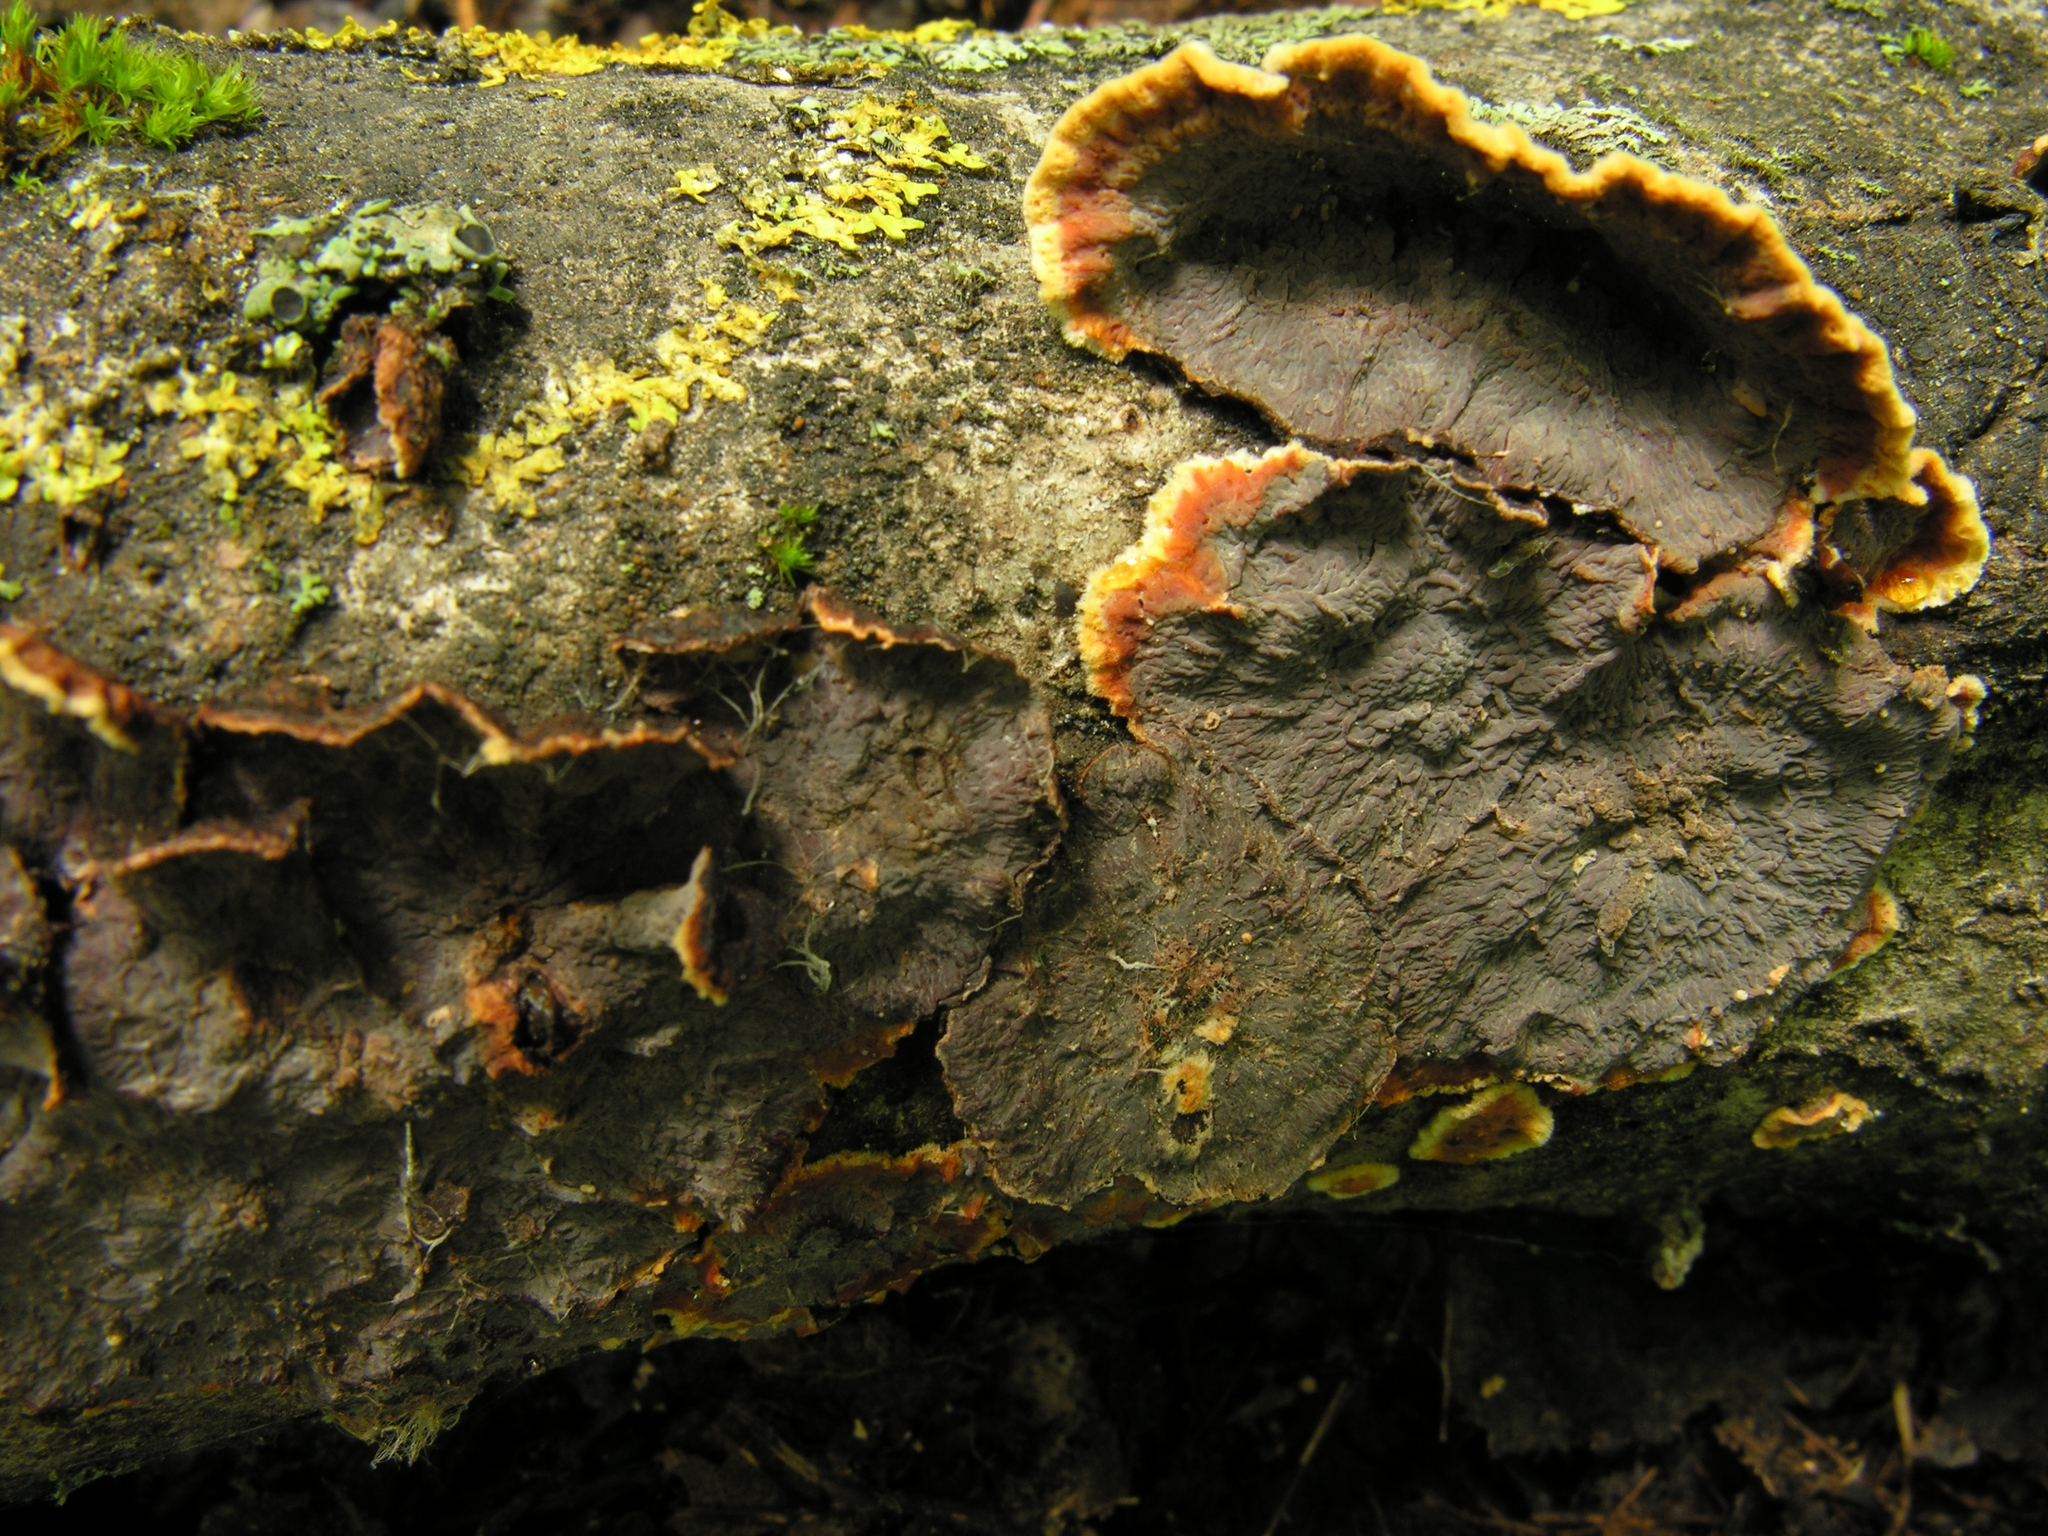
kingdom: Fungi
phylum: Basidiomycota
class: Agaricomycetes
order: Corticiales
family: Punctulariaceae
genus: Punctularia
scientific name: Punctularia strigosozonata
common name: White-rot fungus
